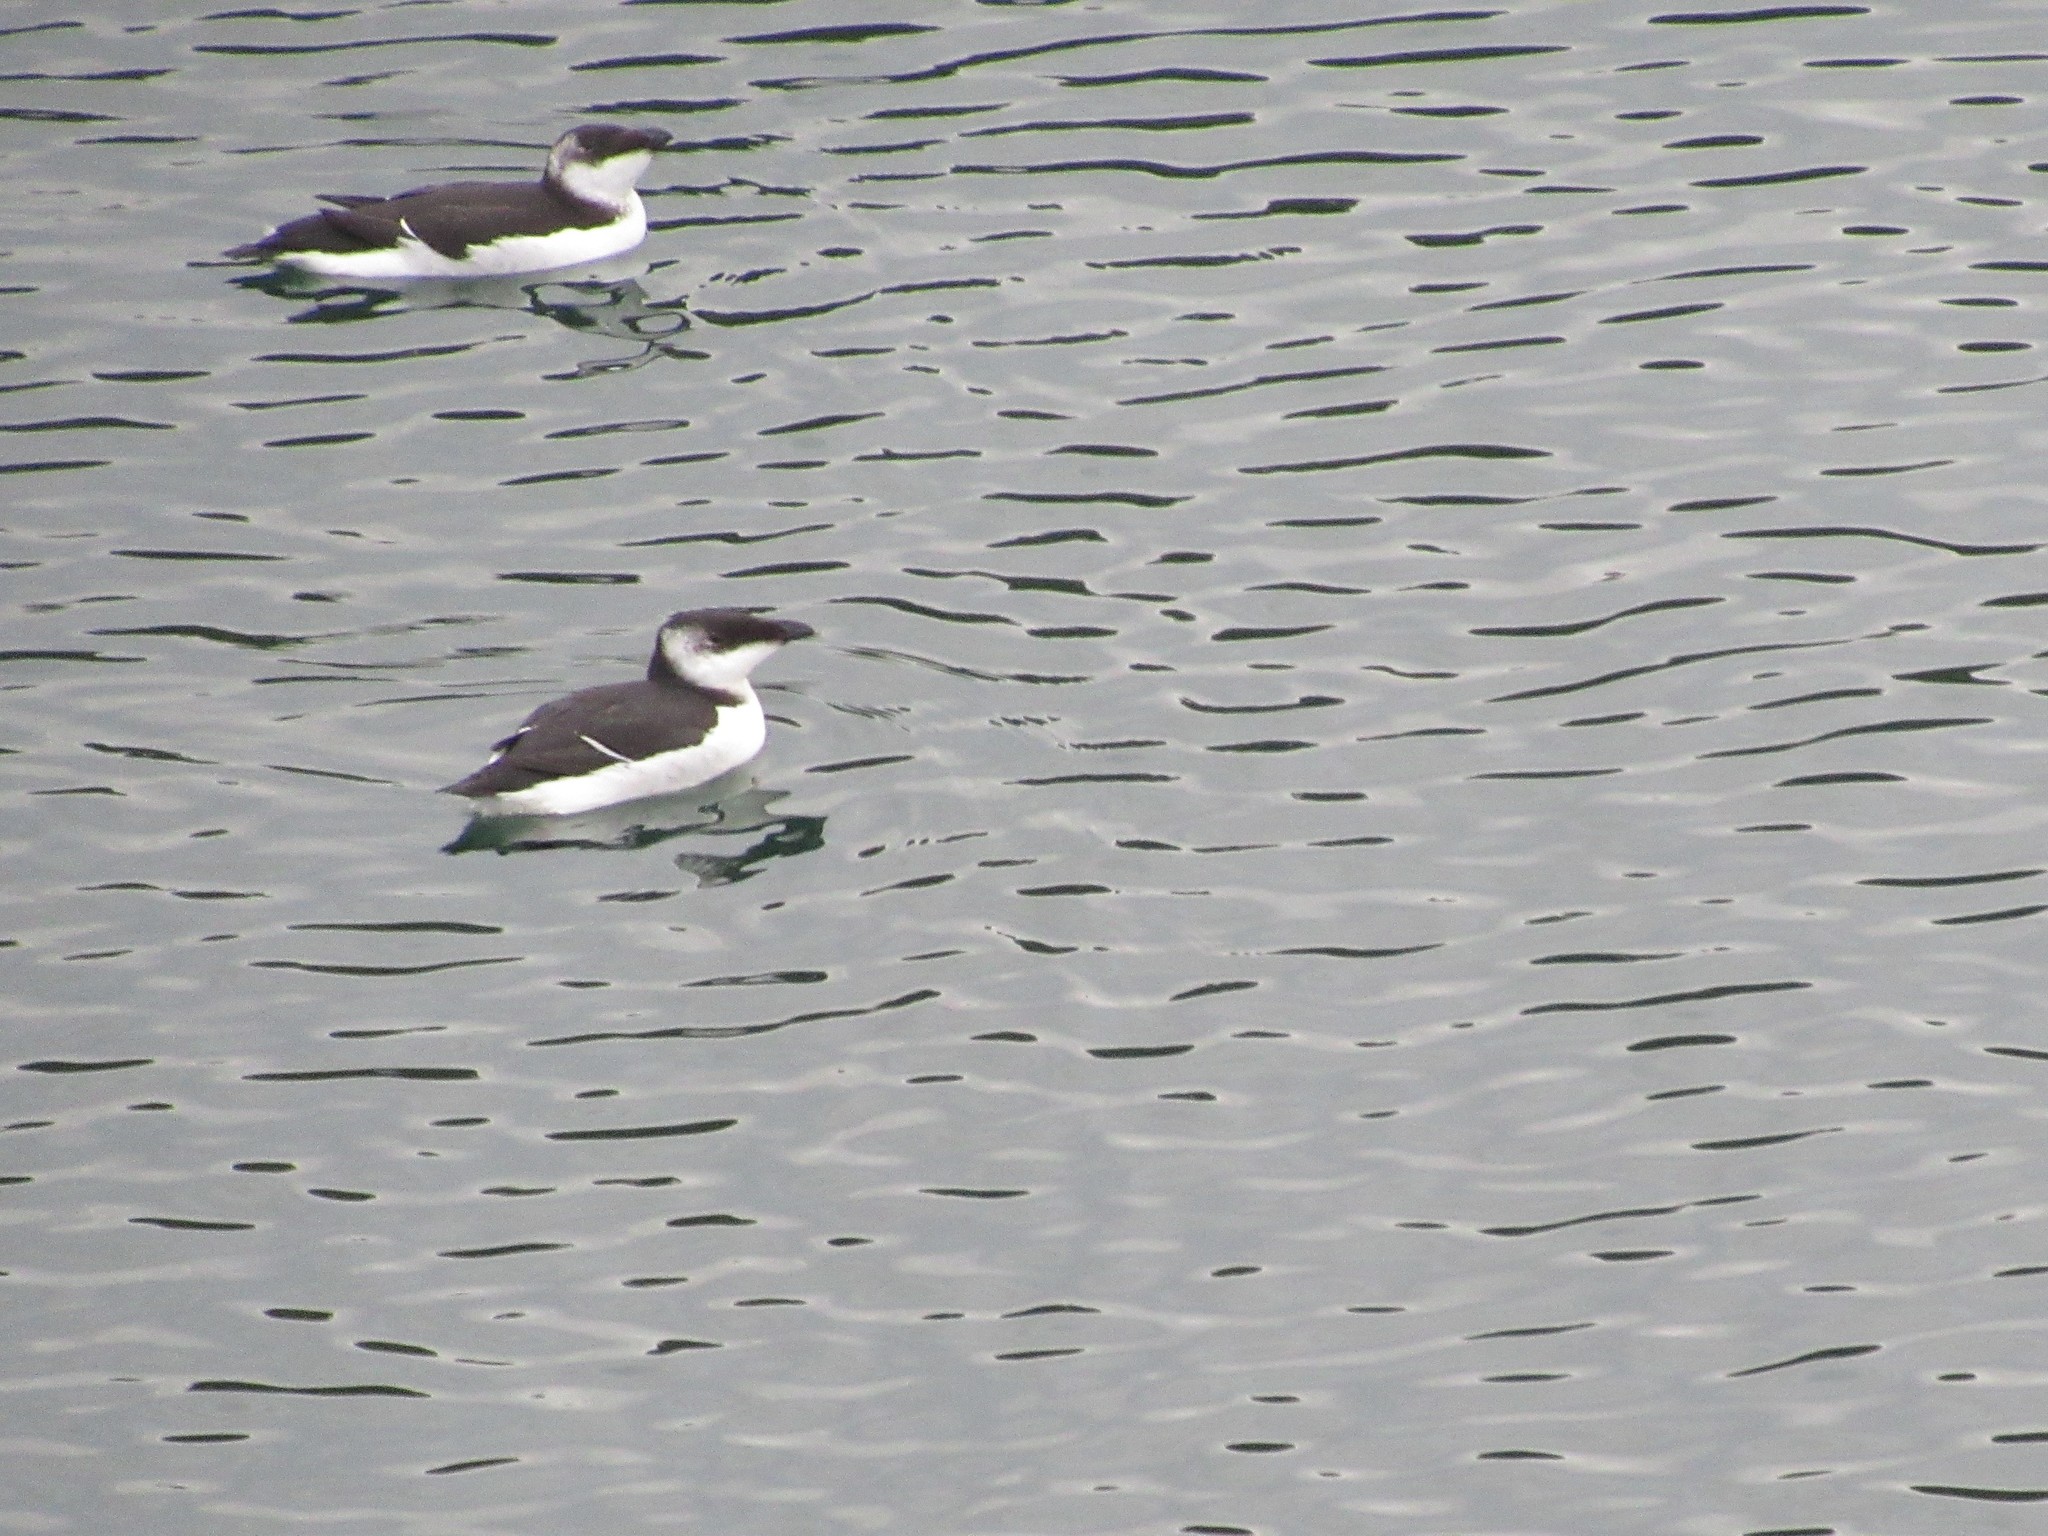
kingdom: Animalia
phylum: Chordata
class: Aves
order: Charadriiformes
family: Alcidae
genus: Alca
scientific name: Alca torda
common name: Razorbill
